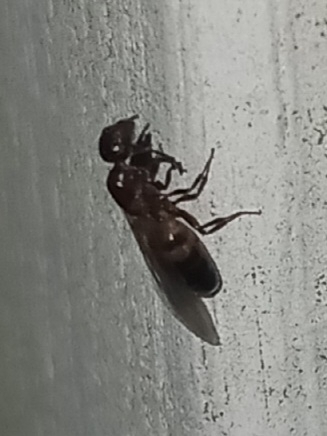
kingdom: Animalia
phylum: Arthropoda
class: Insecta
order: Hymenoptera
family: Formicidae
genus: Colobopsis
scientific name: Colobopsis impressa
